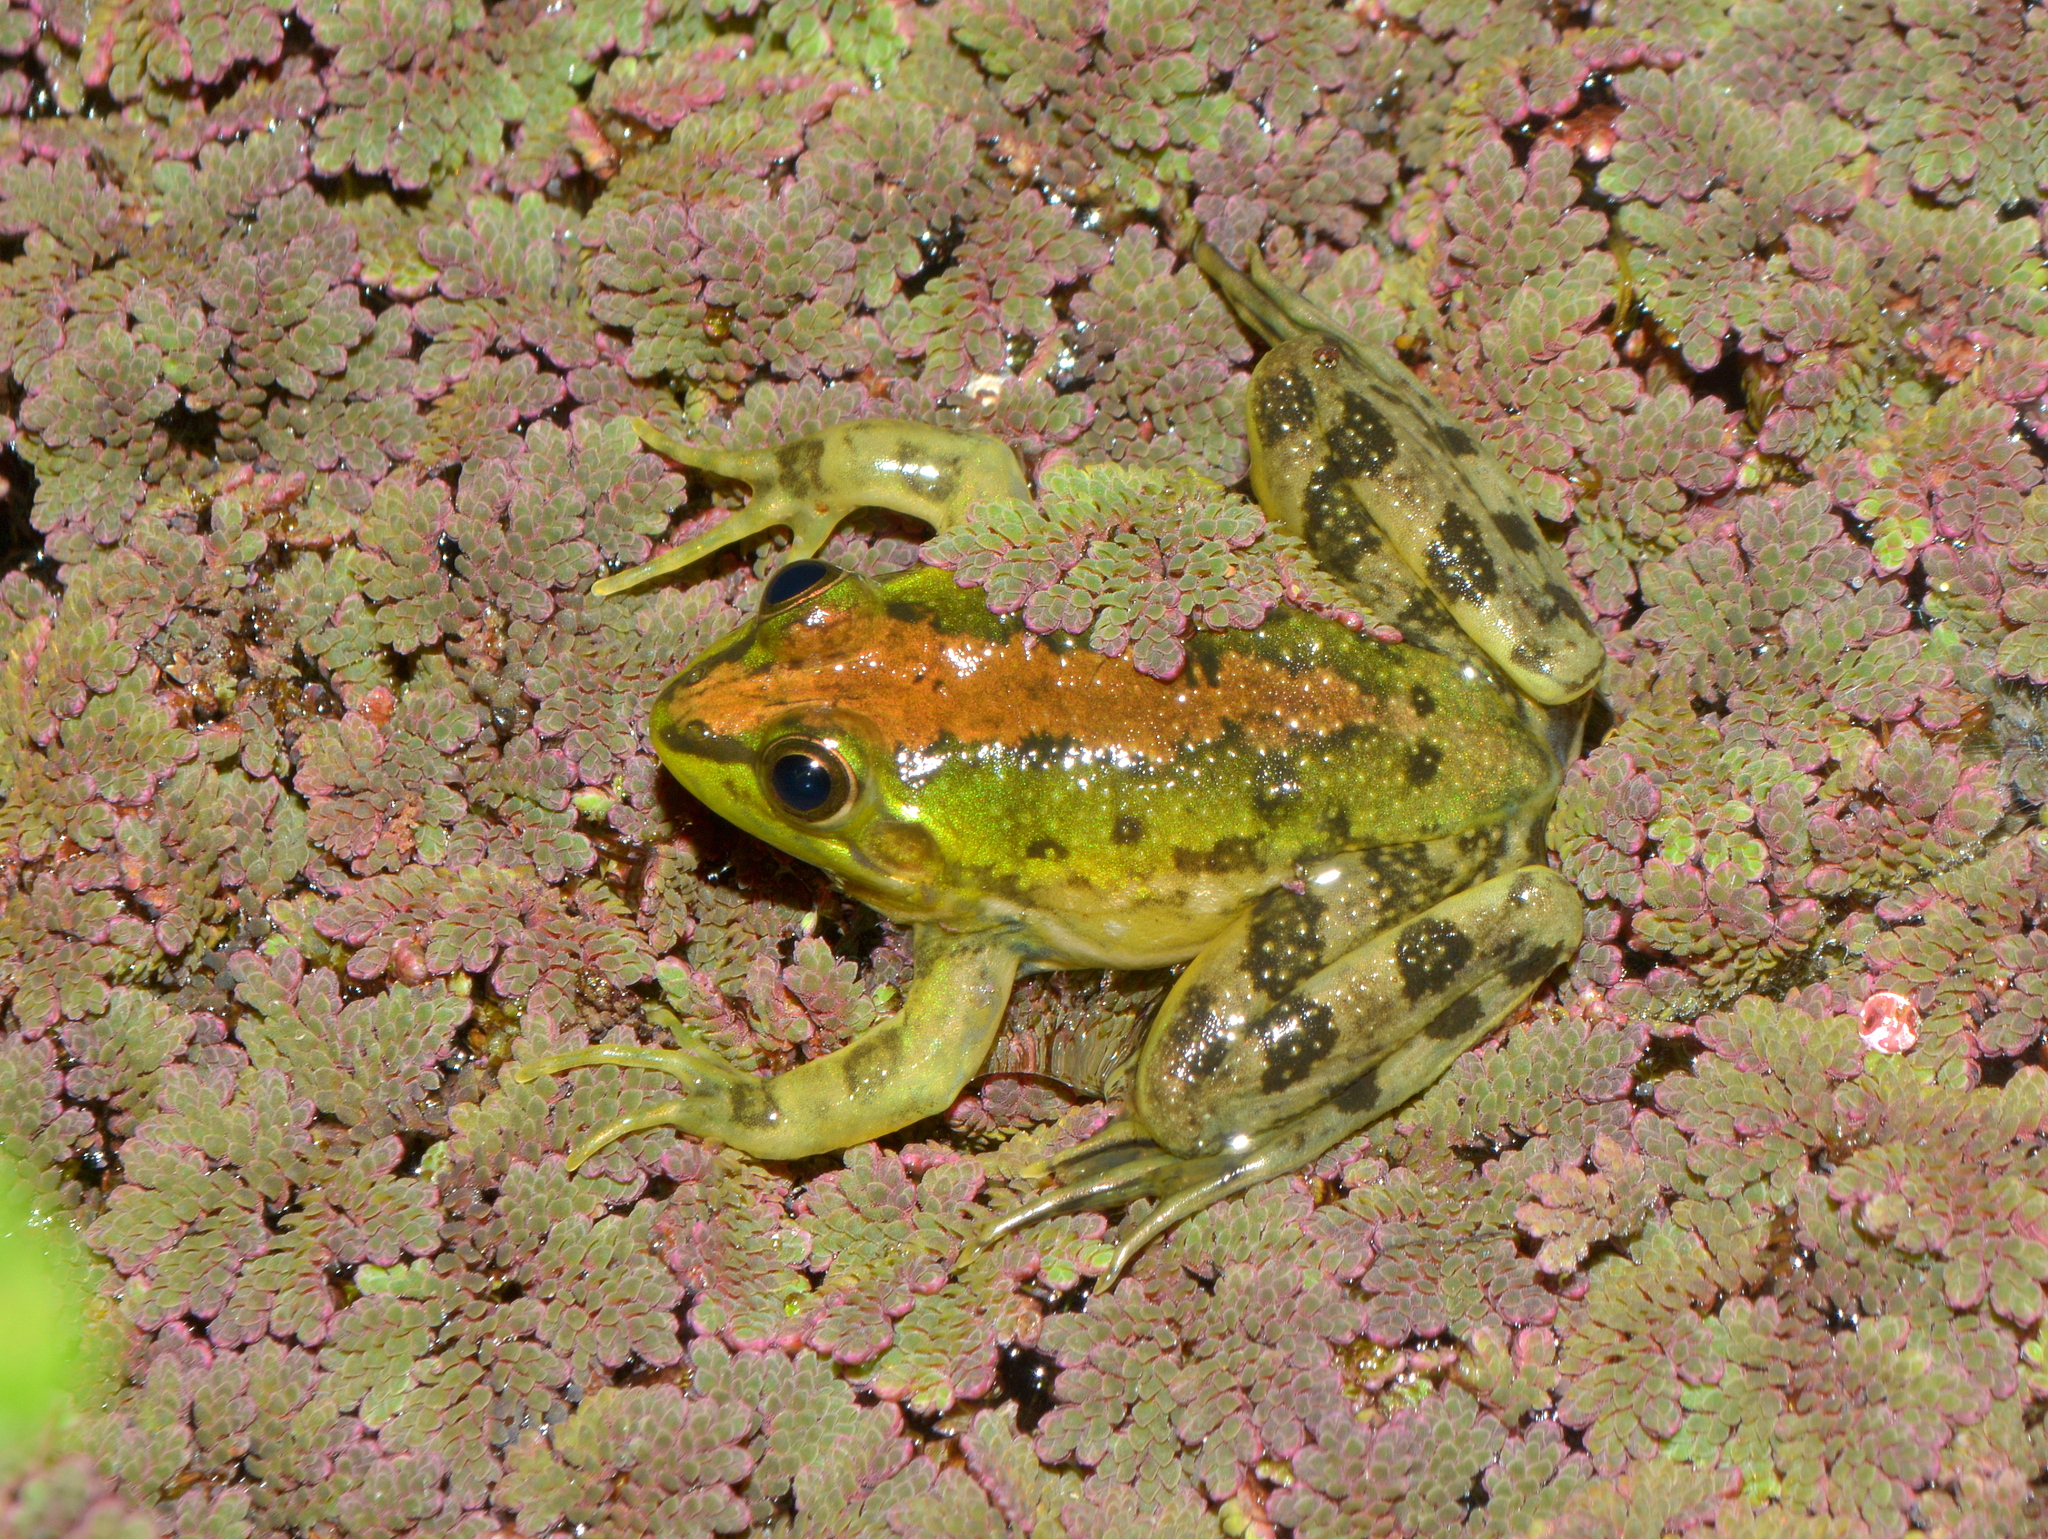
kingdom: Animalia
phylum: Chordata
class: Amphibia
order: Anura
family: Hylidae
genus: Pseudis
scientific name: Pseudis minuta
